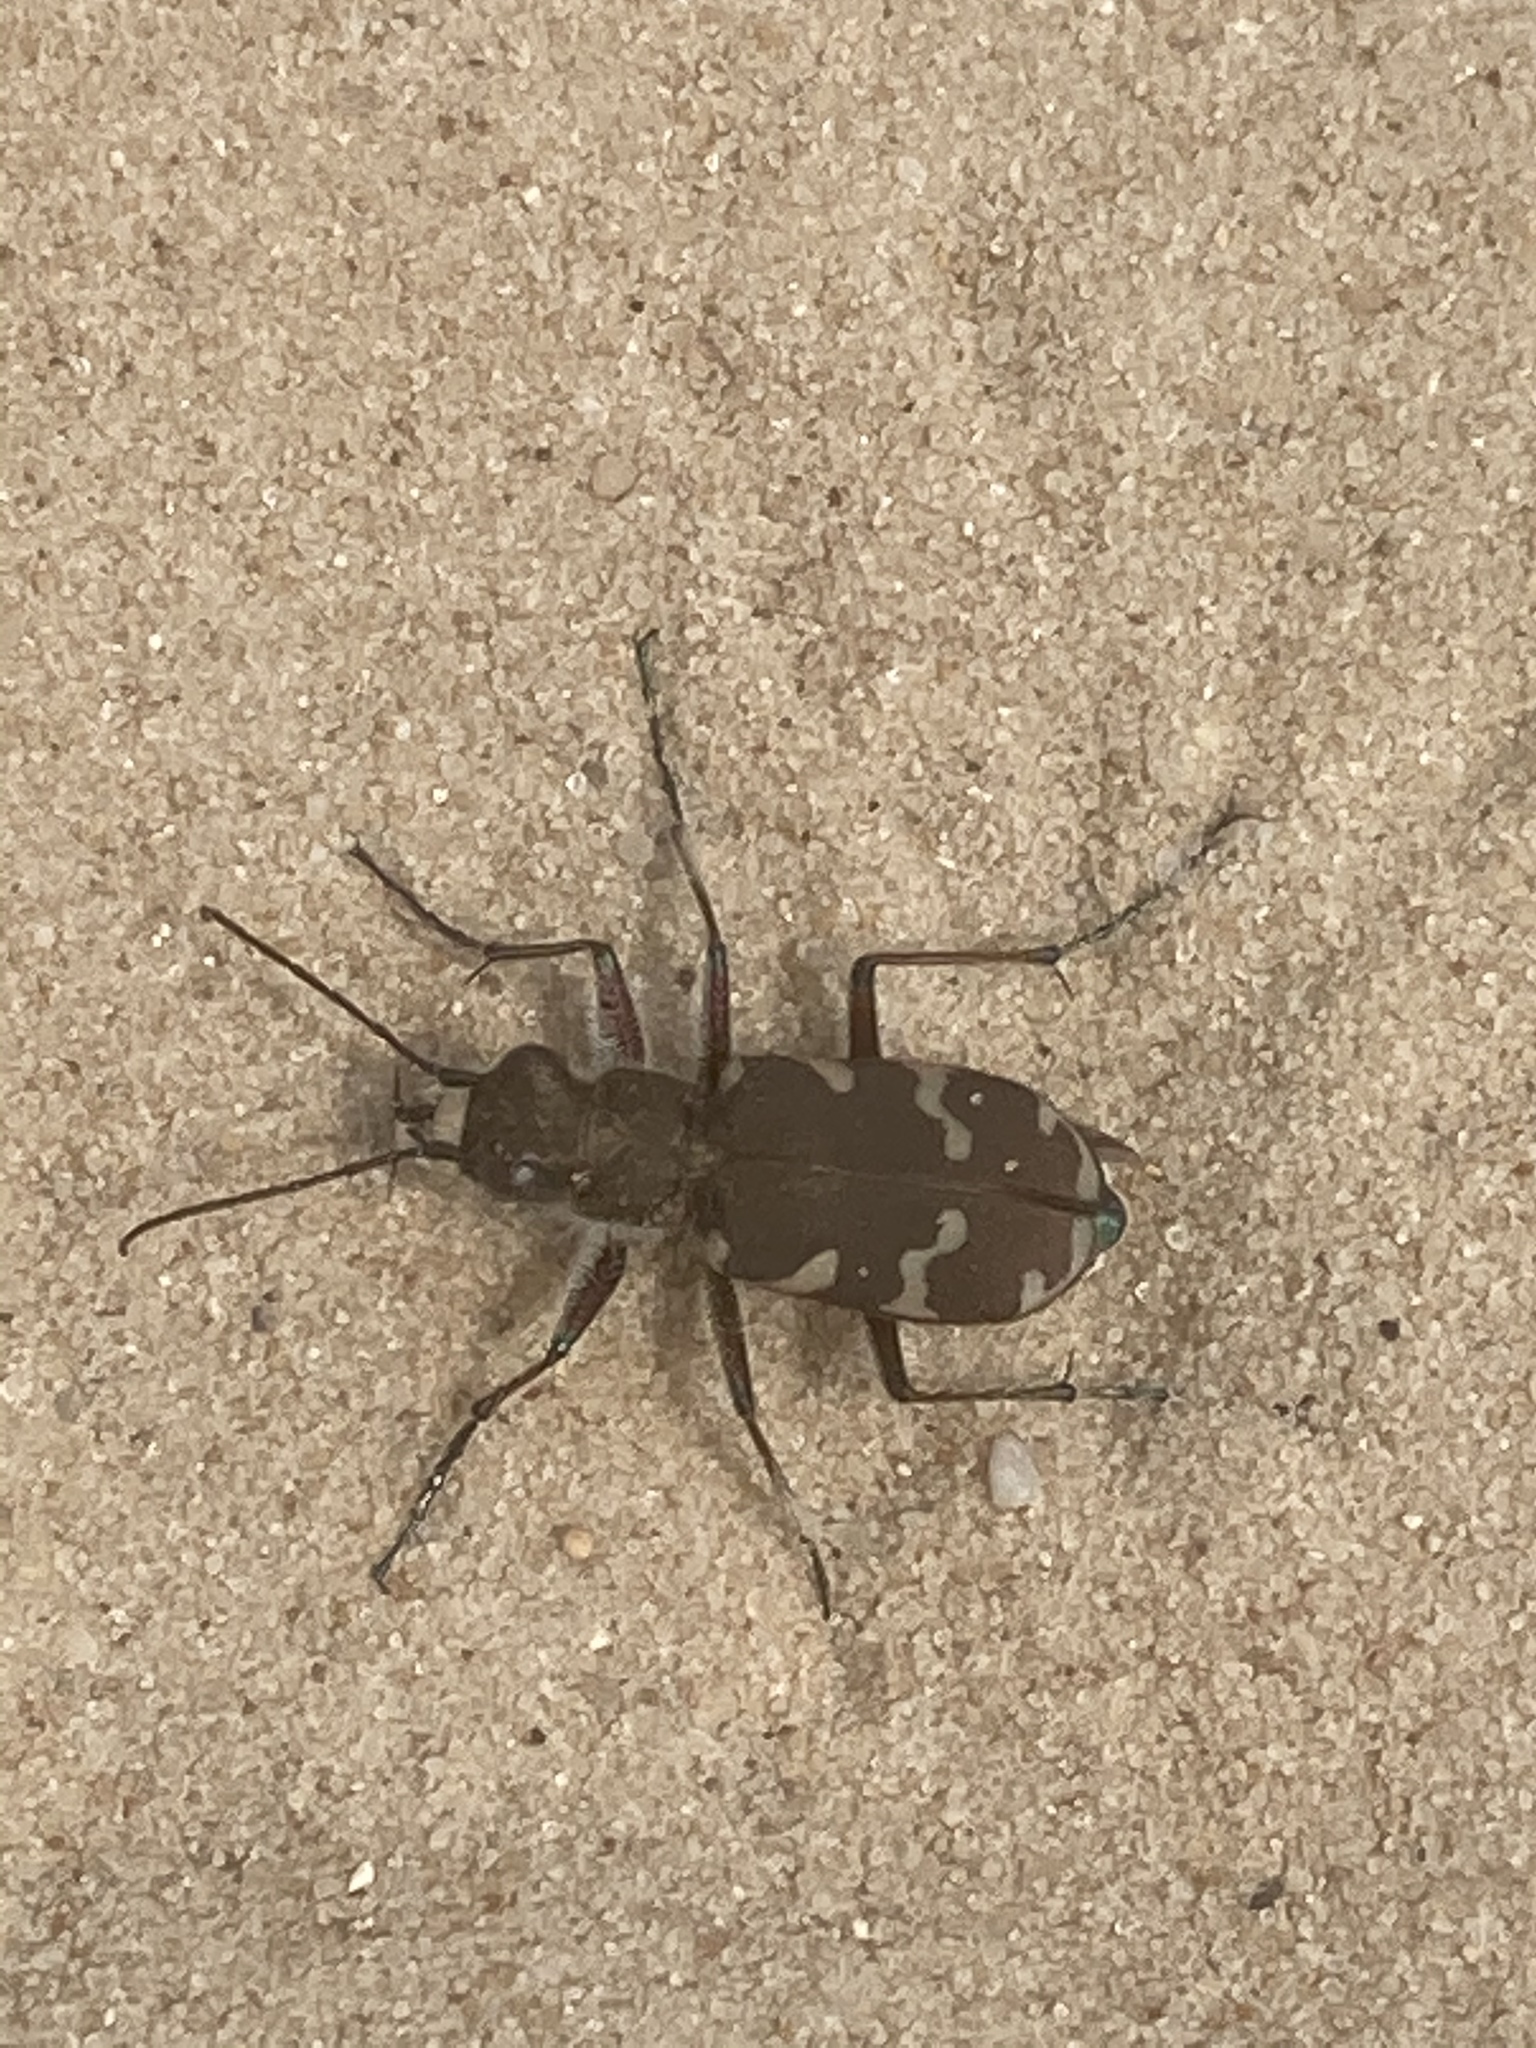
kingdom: Animalia
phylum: Arthropoda
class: Insecta
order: Coleoptera
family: Carabidae
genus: Cicindela
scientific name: Cicindela hybrida
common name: Northern dune tiger beetle
